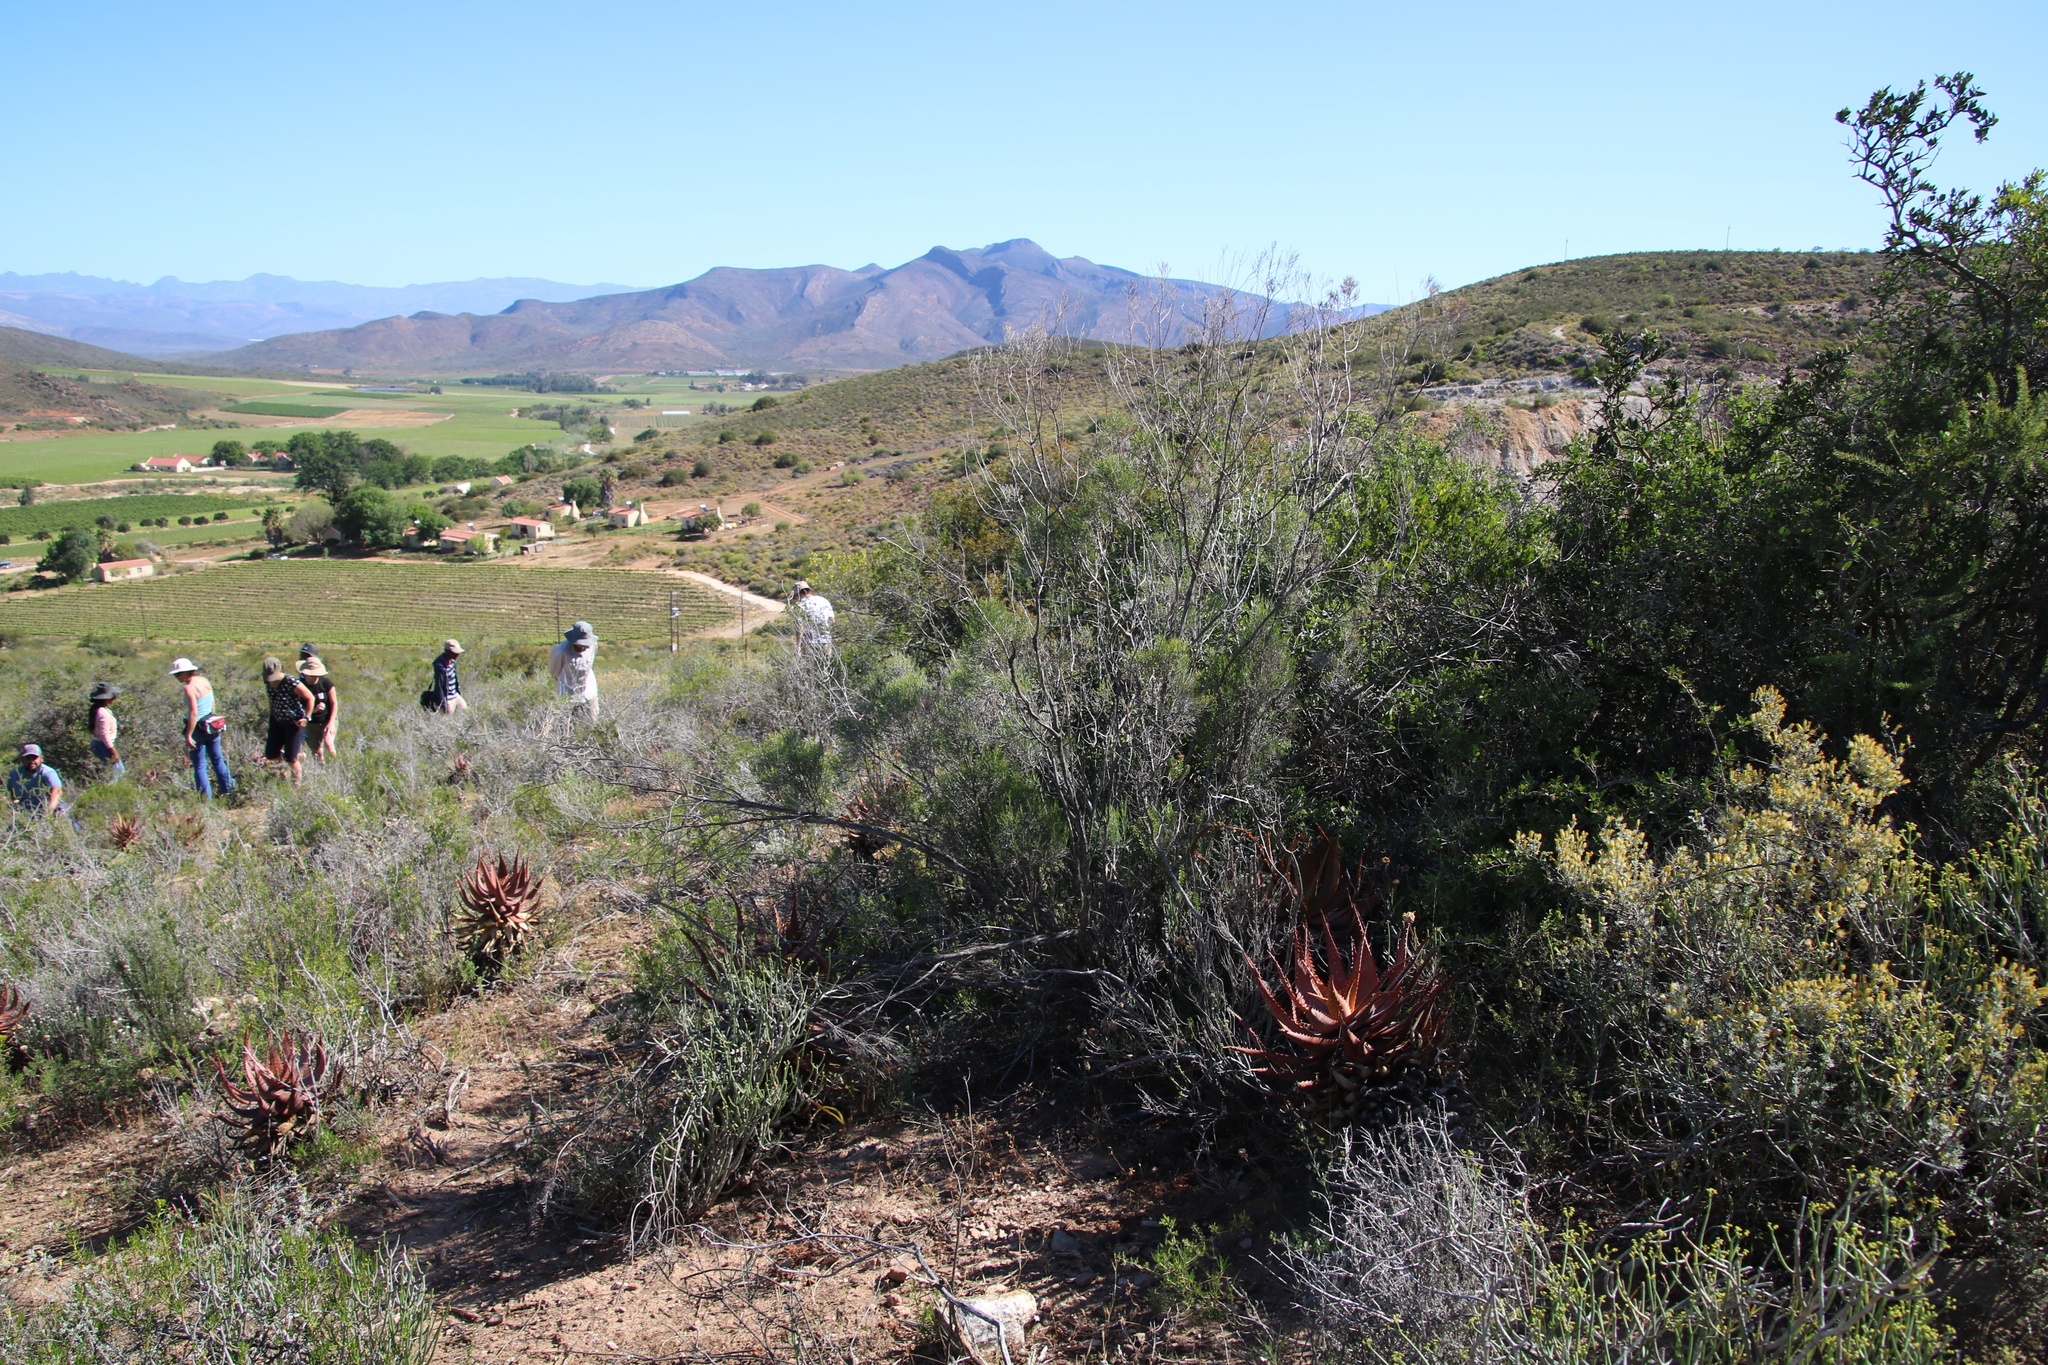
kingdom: Plantae
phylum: Tracheophyta
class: Magnoliopsida
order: Asterales
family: Asteraceae
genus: Dicerothamnus
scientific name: Dicerothamnus rhinocerotis
